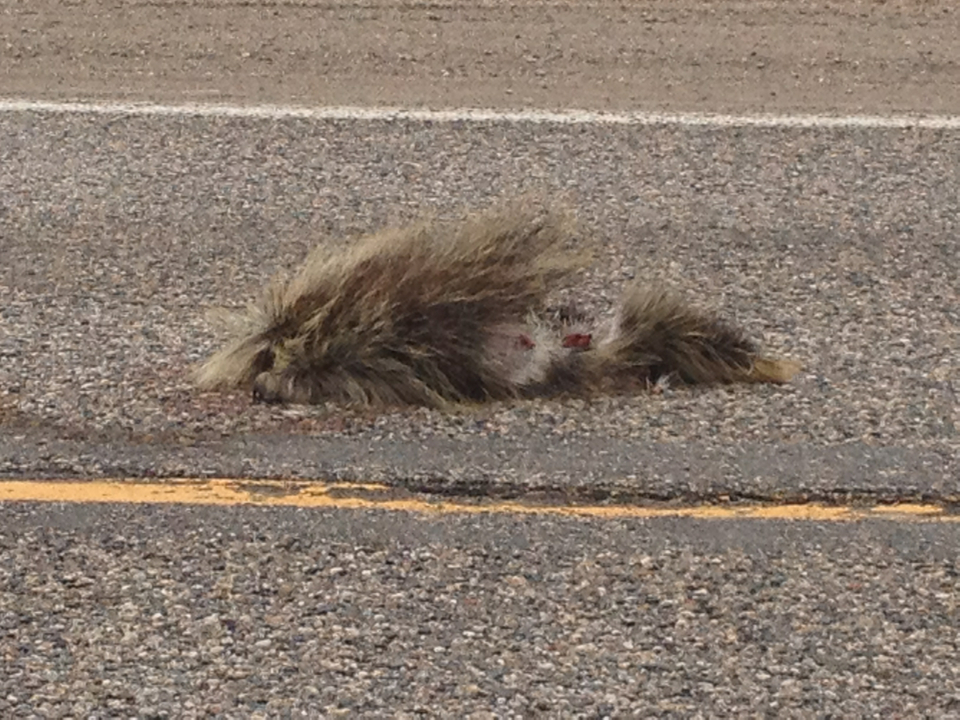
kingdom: Animalia
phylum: Chordata
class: Mammalia
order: Rodentia
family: Erethizontidae
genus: Erethizon
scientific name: Erethizon dorsatus
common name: North american porcupine
